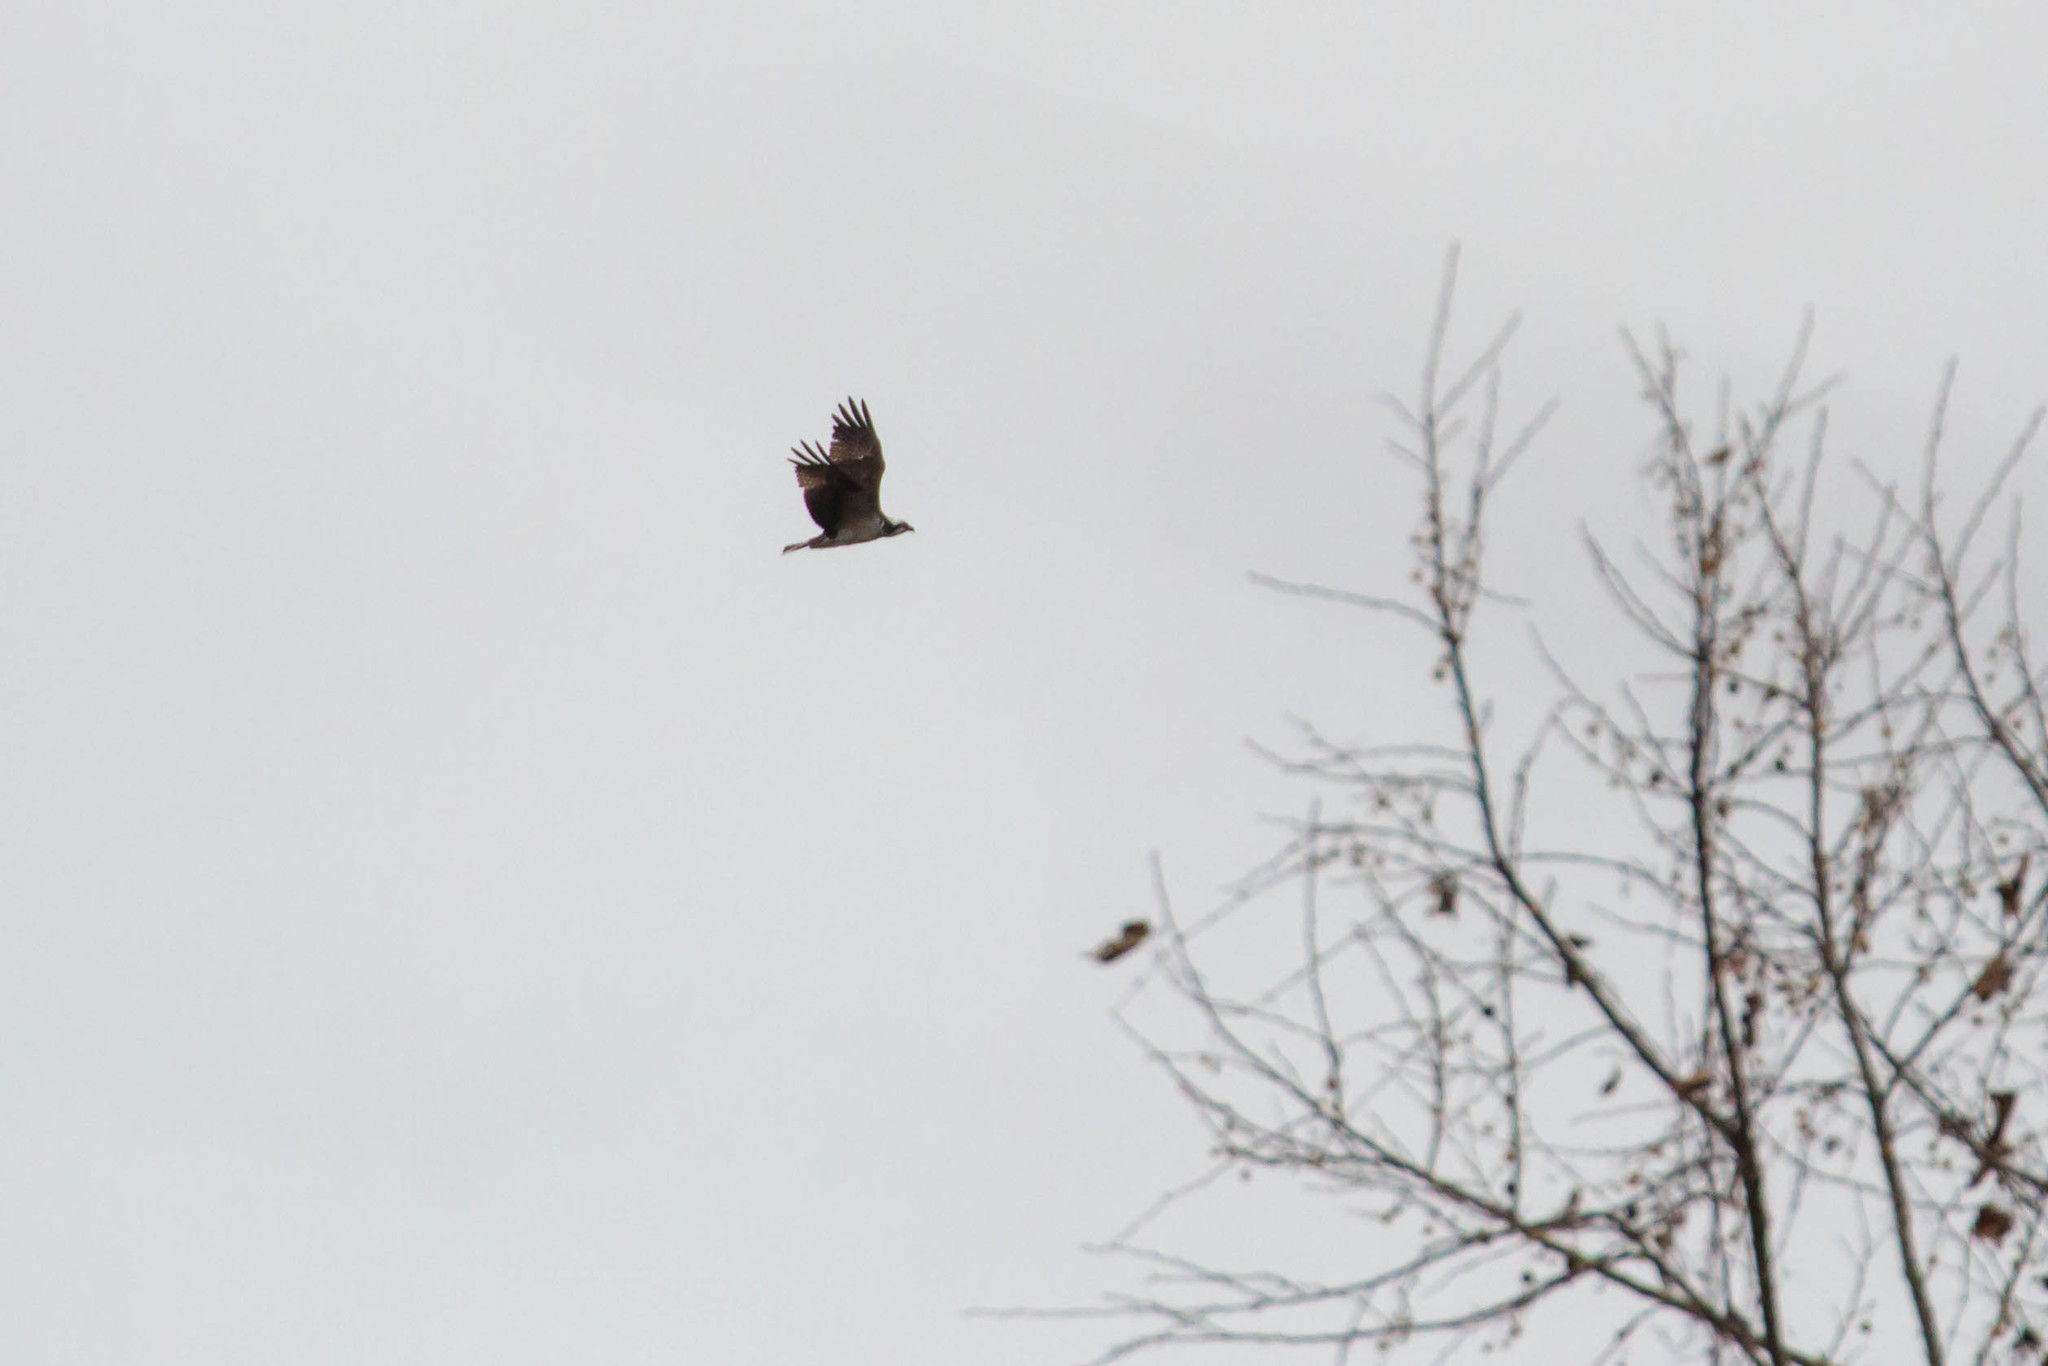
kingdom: Animalia
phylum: Chordata
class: Aves
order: Accipitriformes
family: Pandionidae
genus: Pandion
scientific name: Pandion haliaetus
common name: Osprey
